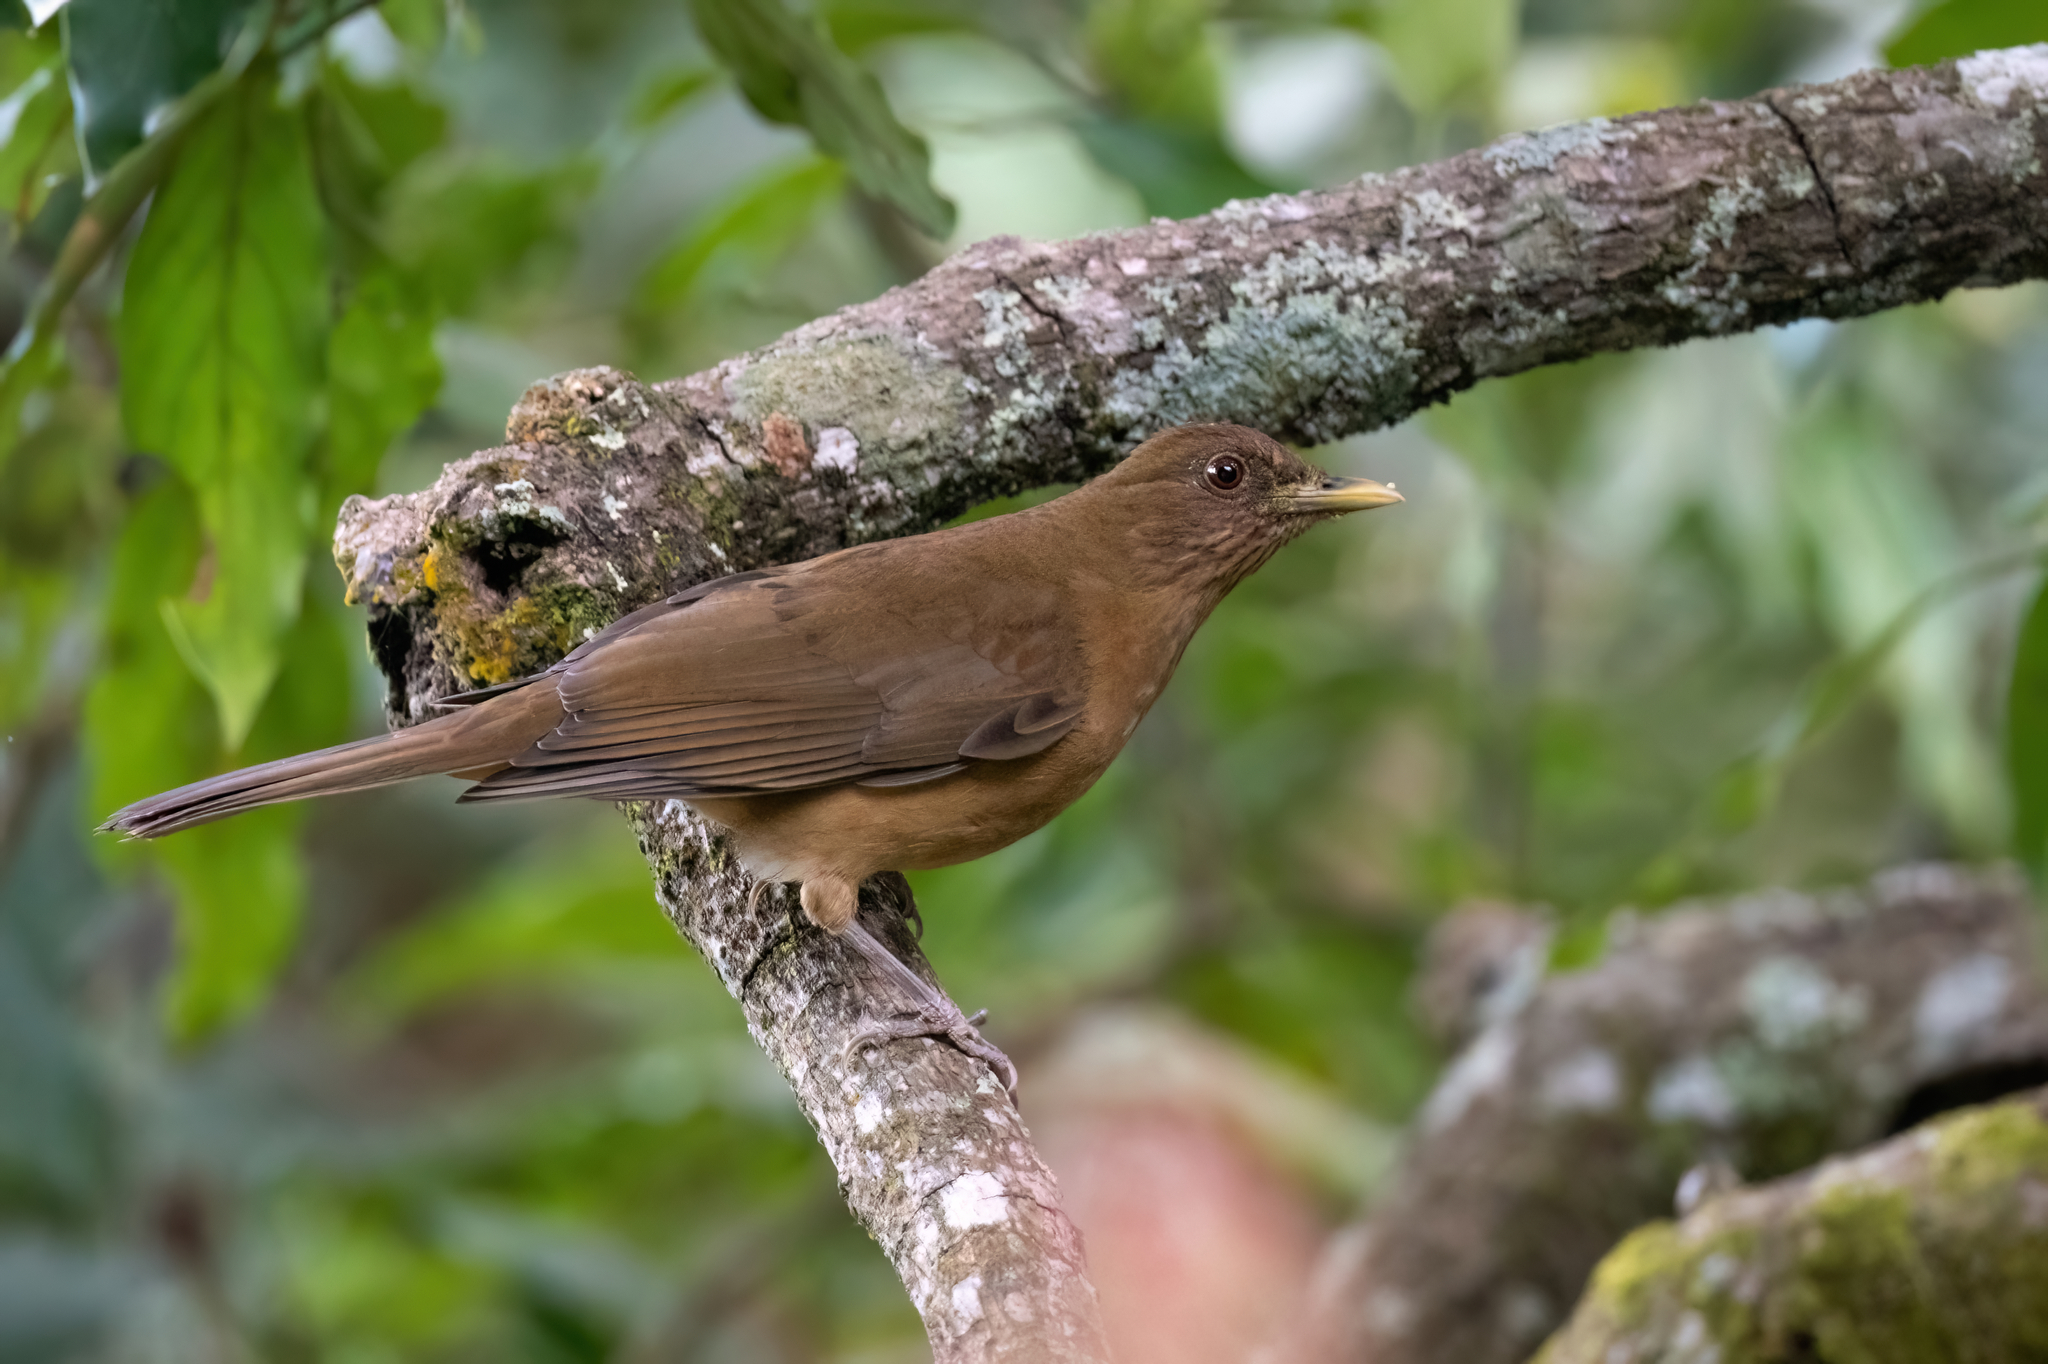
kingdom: Animalia
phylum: Chordata
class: Aves
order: Passeriformes
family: Turdidae
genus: Turdus
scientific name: Turdus grayi
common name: Clay-colored thrush
